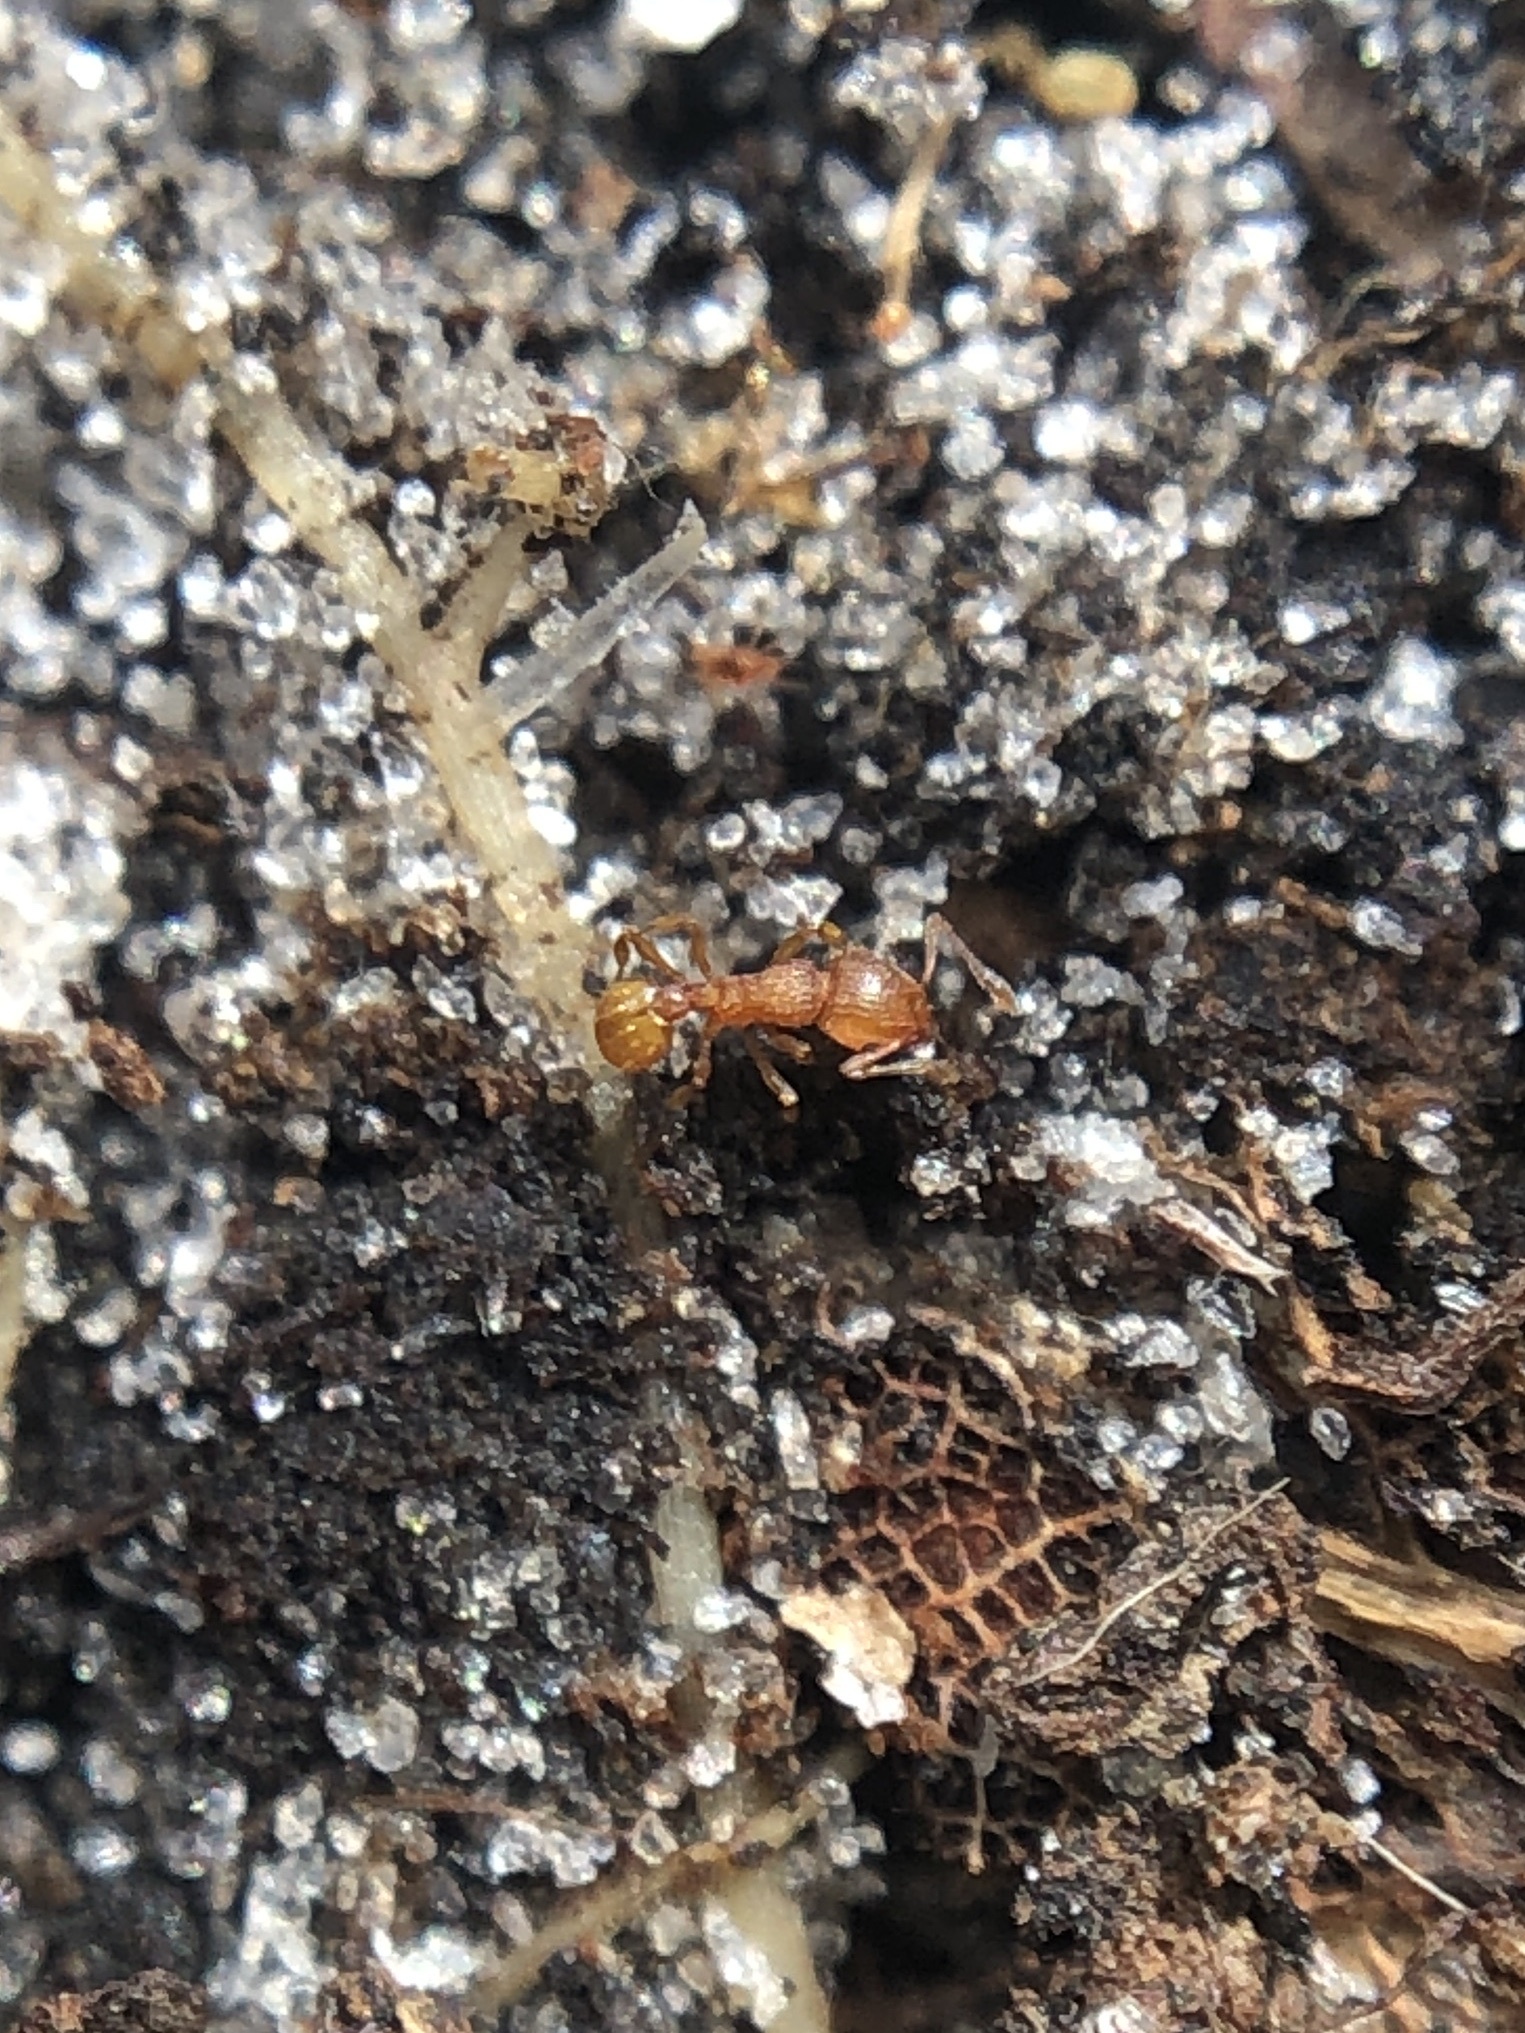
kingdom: Animalia
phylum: Arthropoda
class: Insecta
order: Hymenoptera
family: Formicidae
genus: Wasmannia
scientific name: Wasmannia auropunctata
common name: Little fire ant
